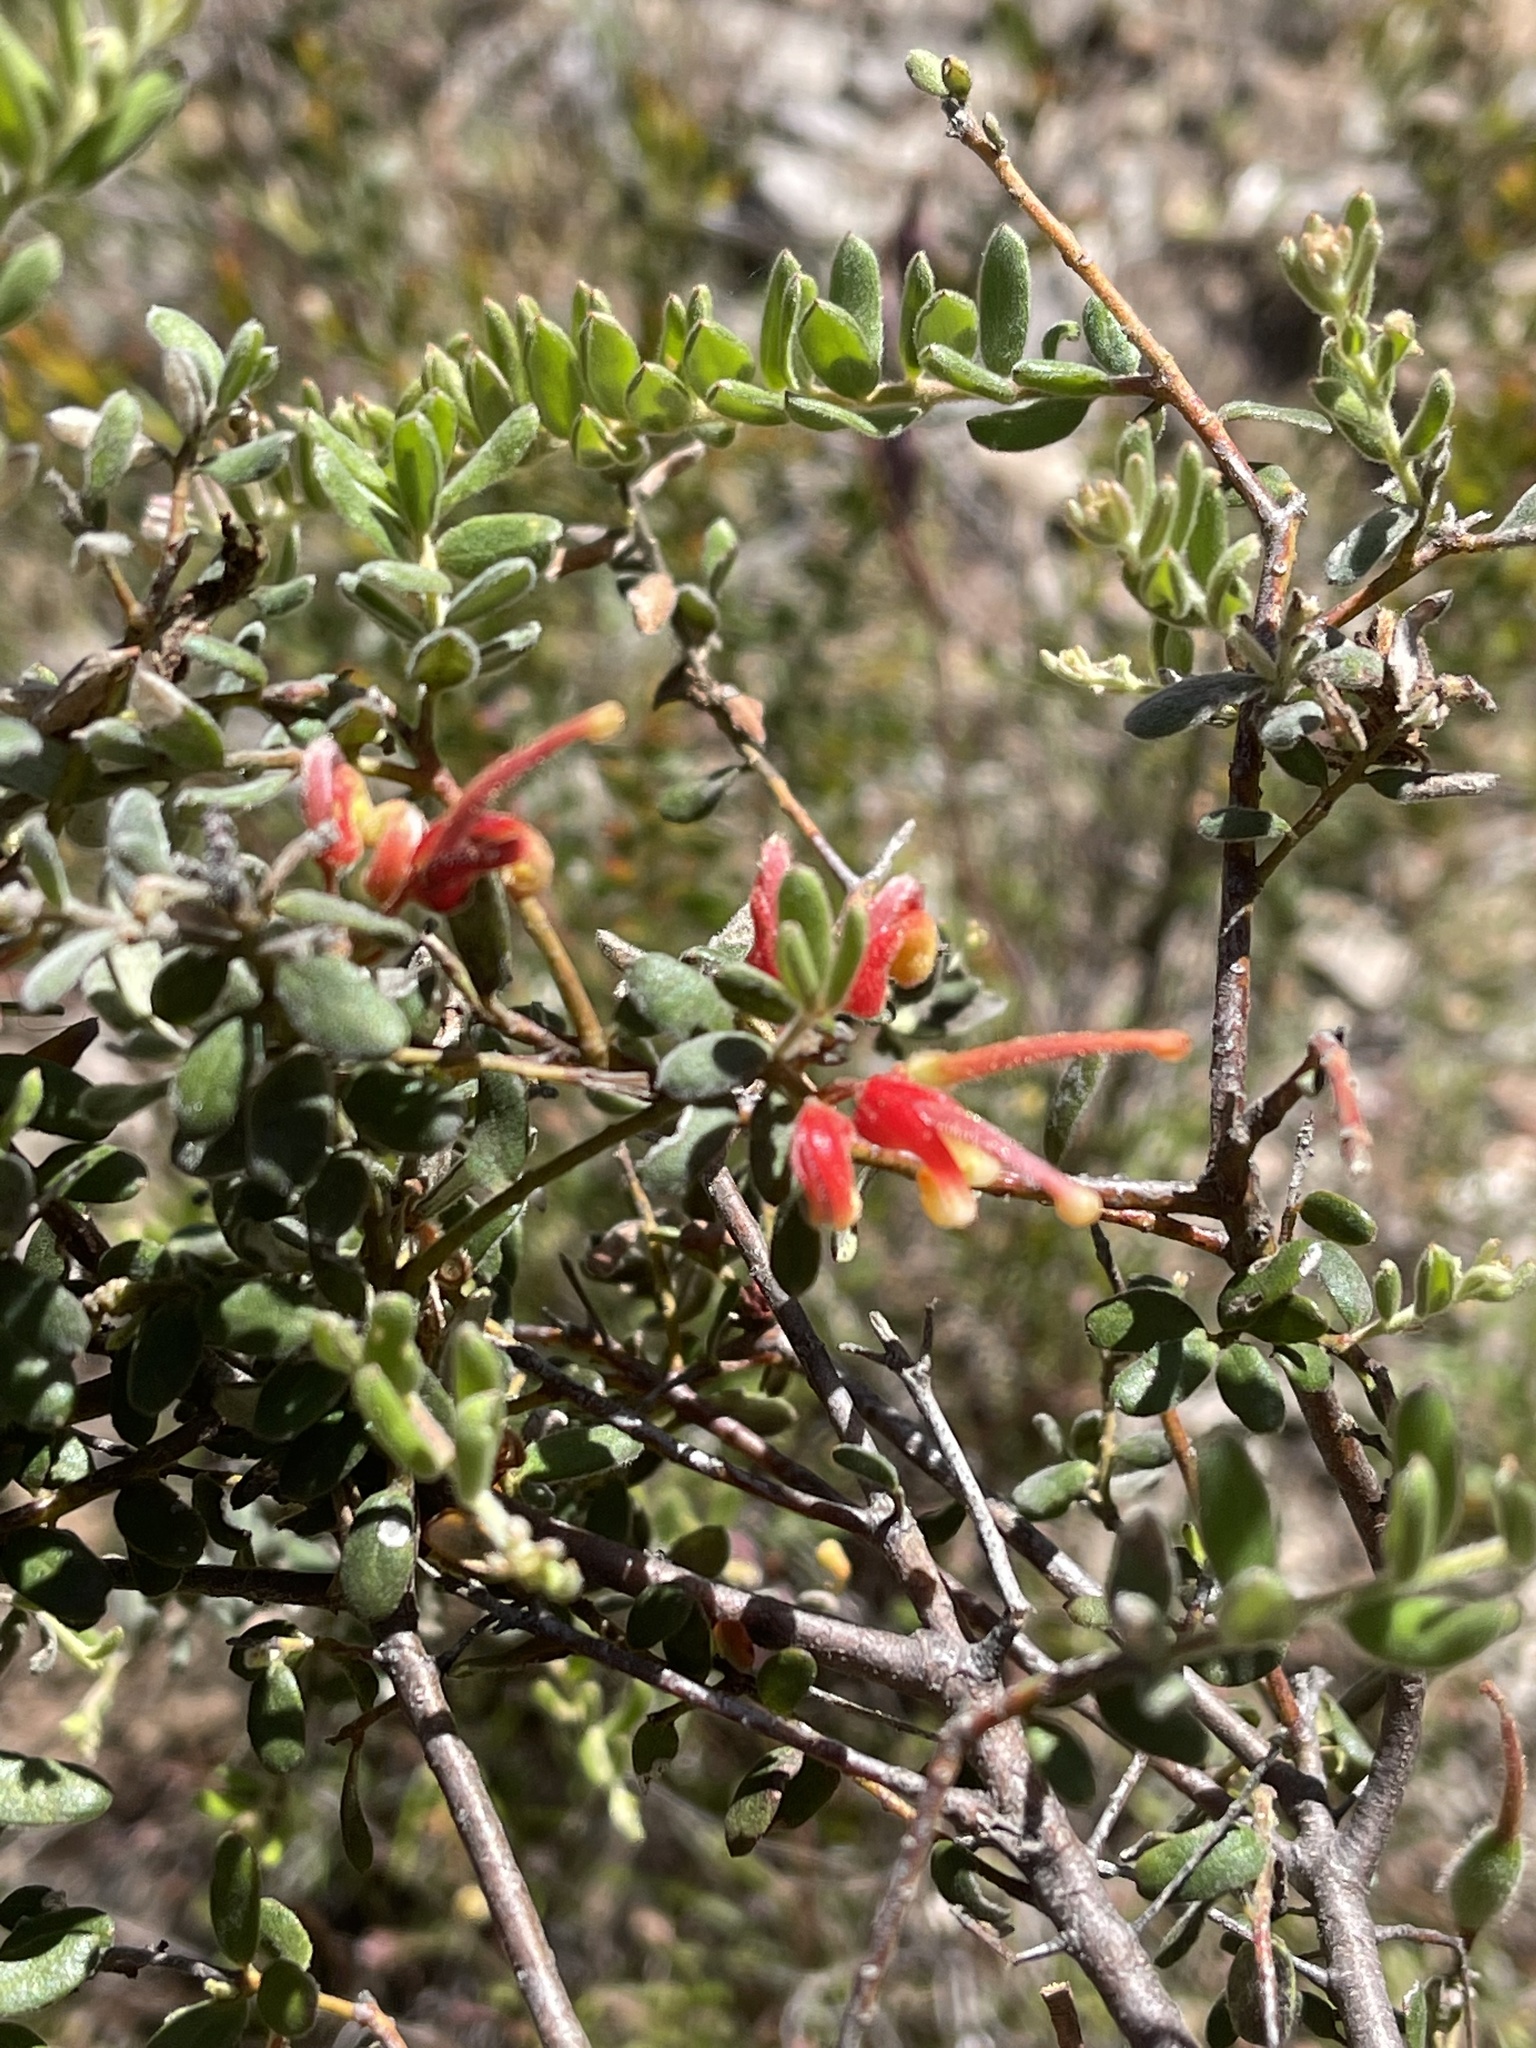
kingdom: Plantae
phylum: Tracheophyta
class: Magnoliopsida
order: Proteales
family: Proteaceae
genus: Grevillea
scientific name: Grevillea alpina
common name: Catclaws grevillea
